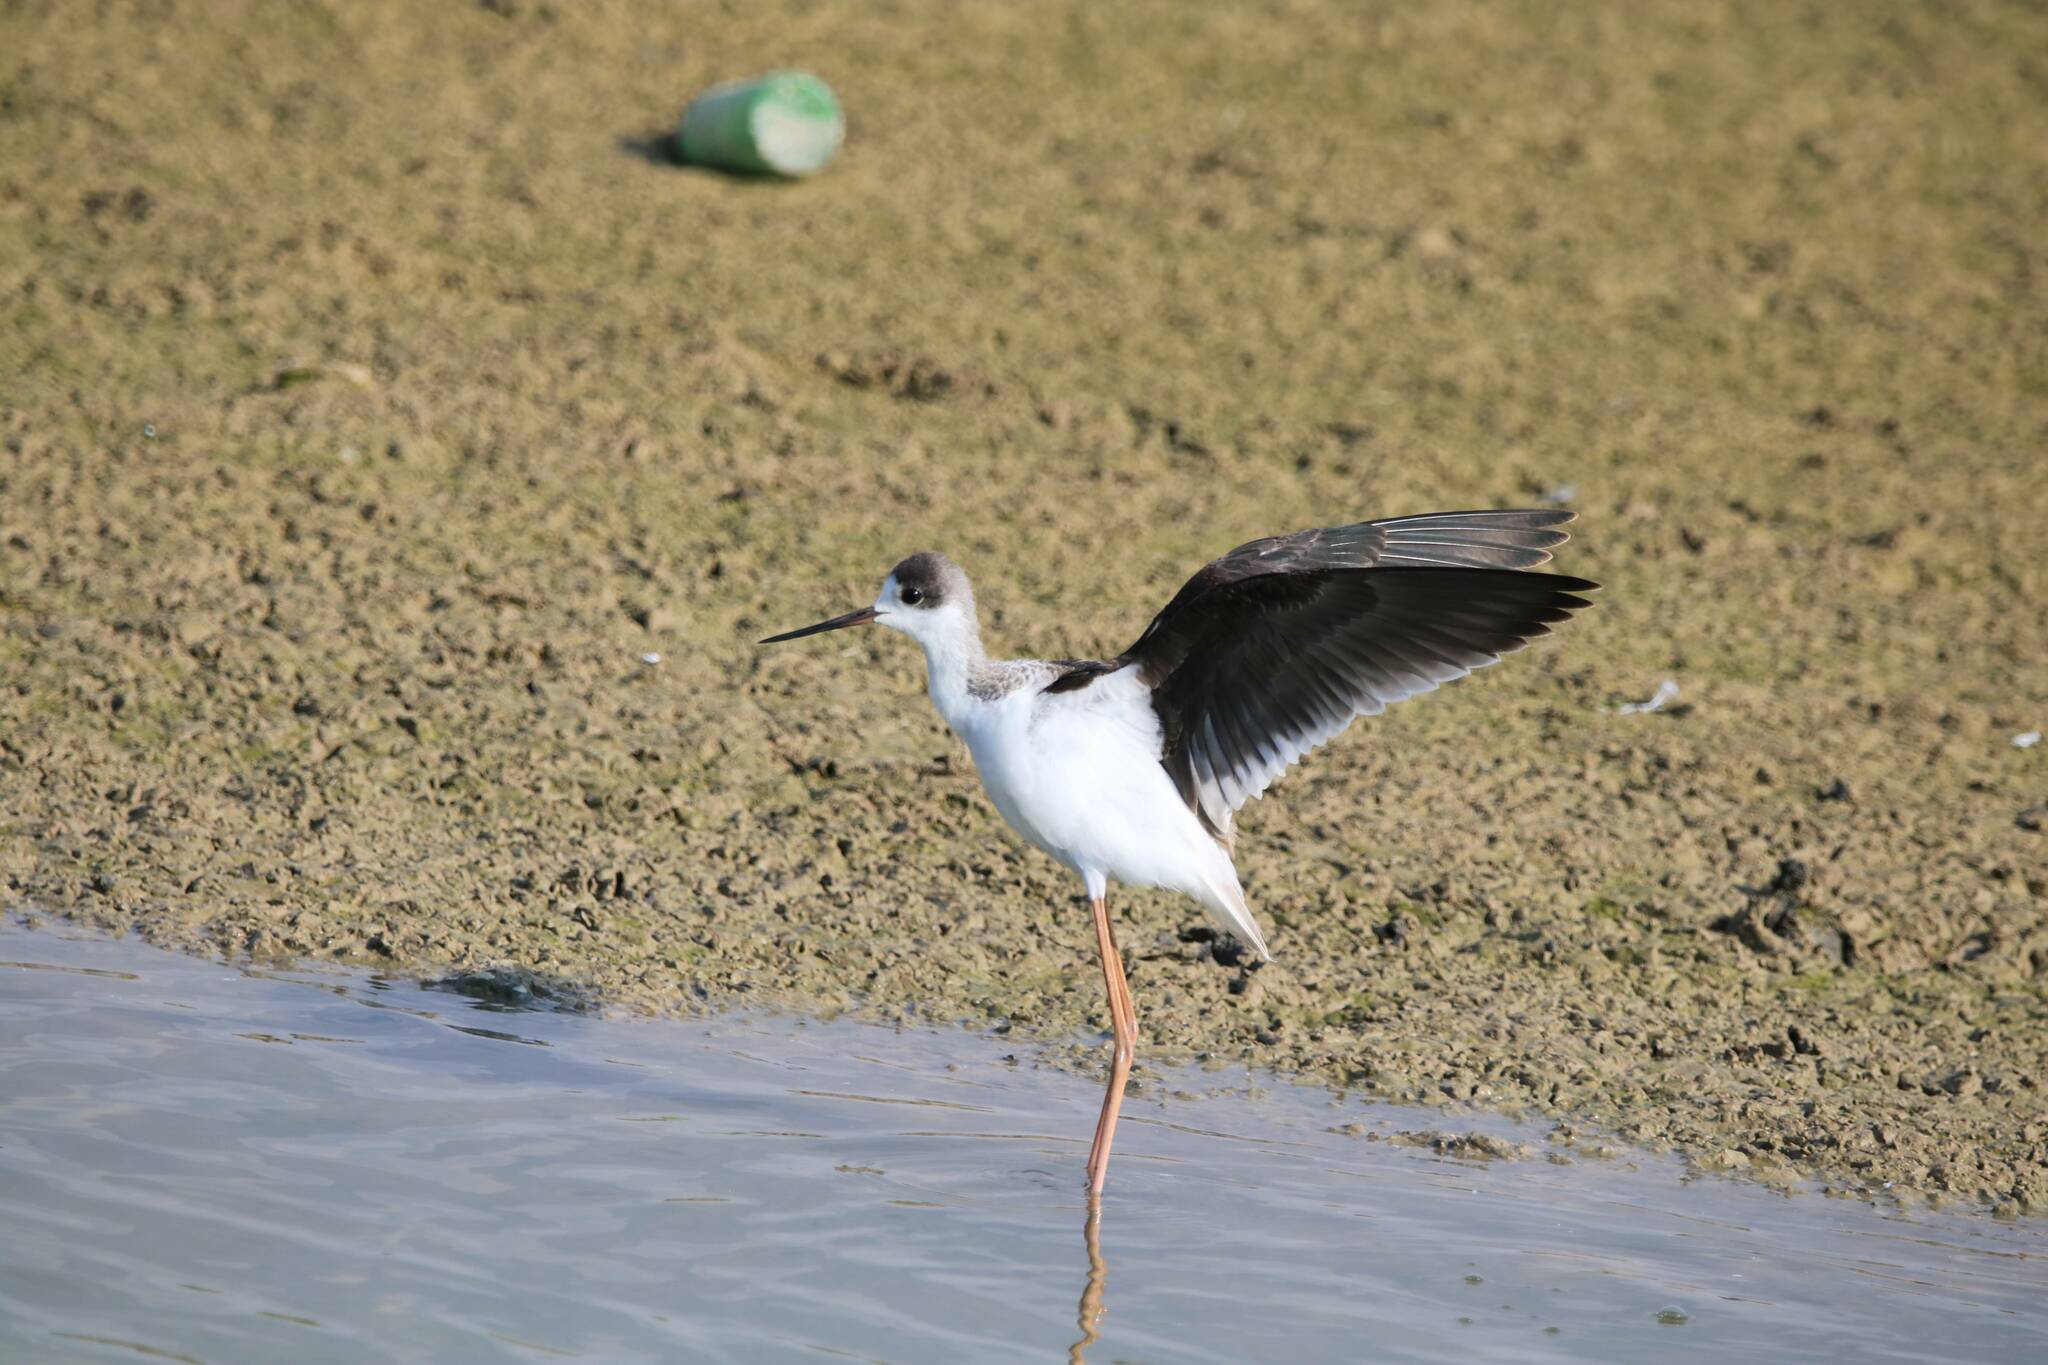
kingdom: Animalia
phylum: Chordata
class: Aves
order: Charadriiformes
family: Recurvirostridae
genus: Himantopus
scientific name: Himantopus himantopus
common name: Black-winged stilt
